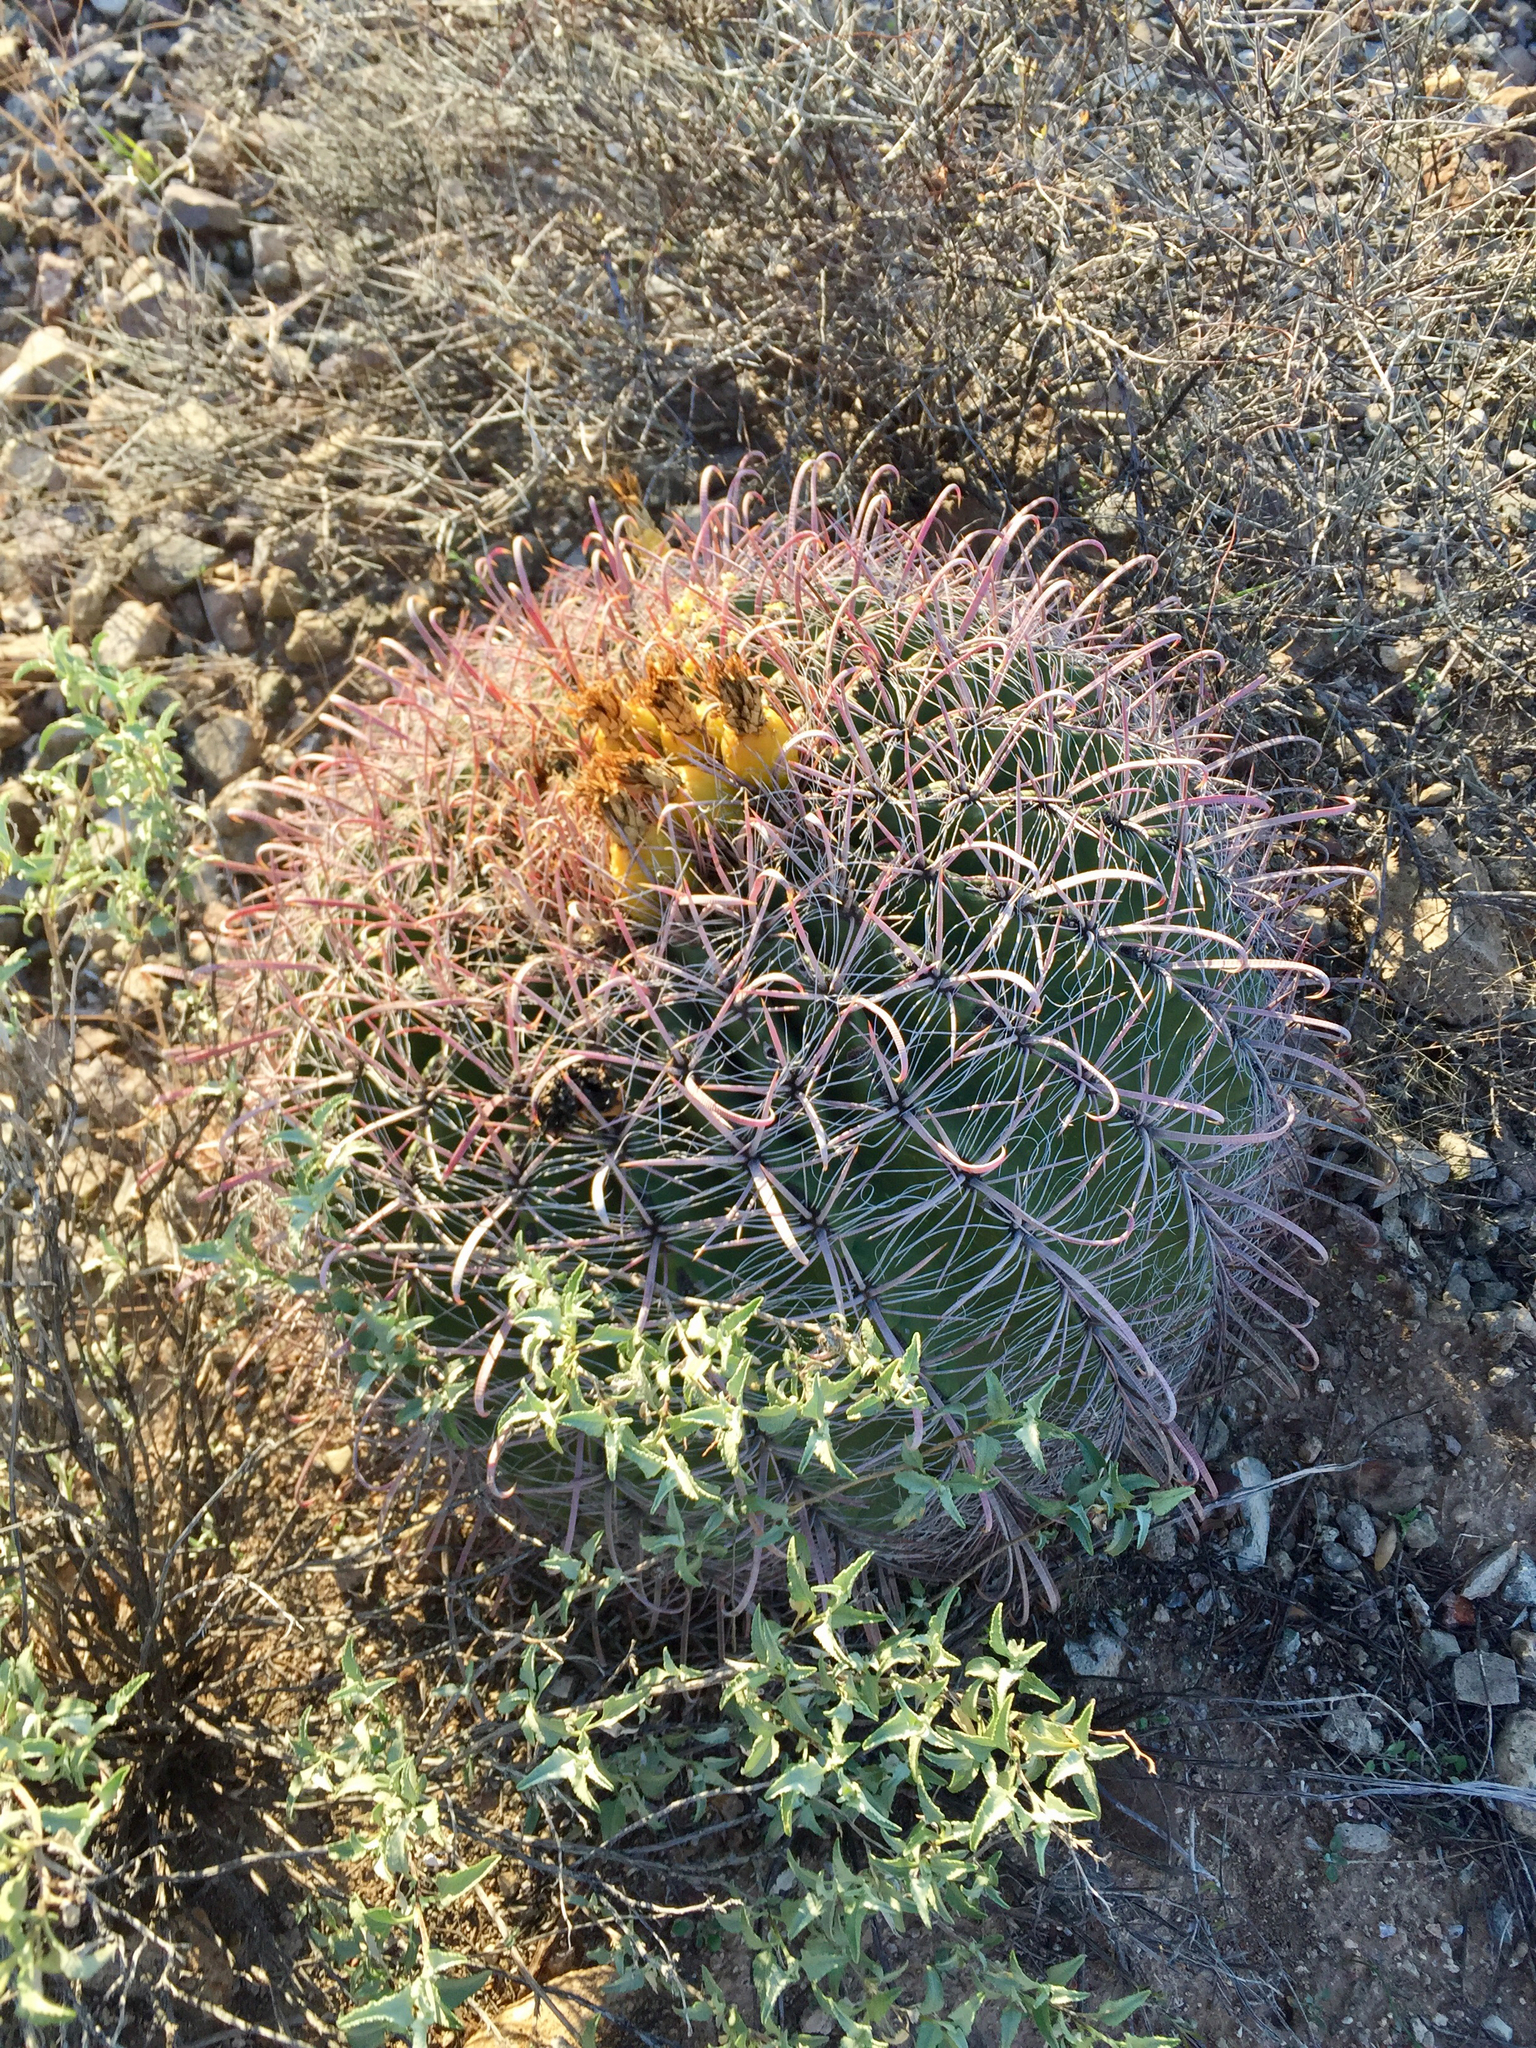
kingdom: Plantae
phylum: Tracheophyta
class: Magnoliopsida
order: Caryophyllales
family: Cactaceae
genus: Ferocactus
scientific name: Ferocactus wislizeni
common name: Candy barrel cactus
